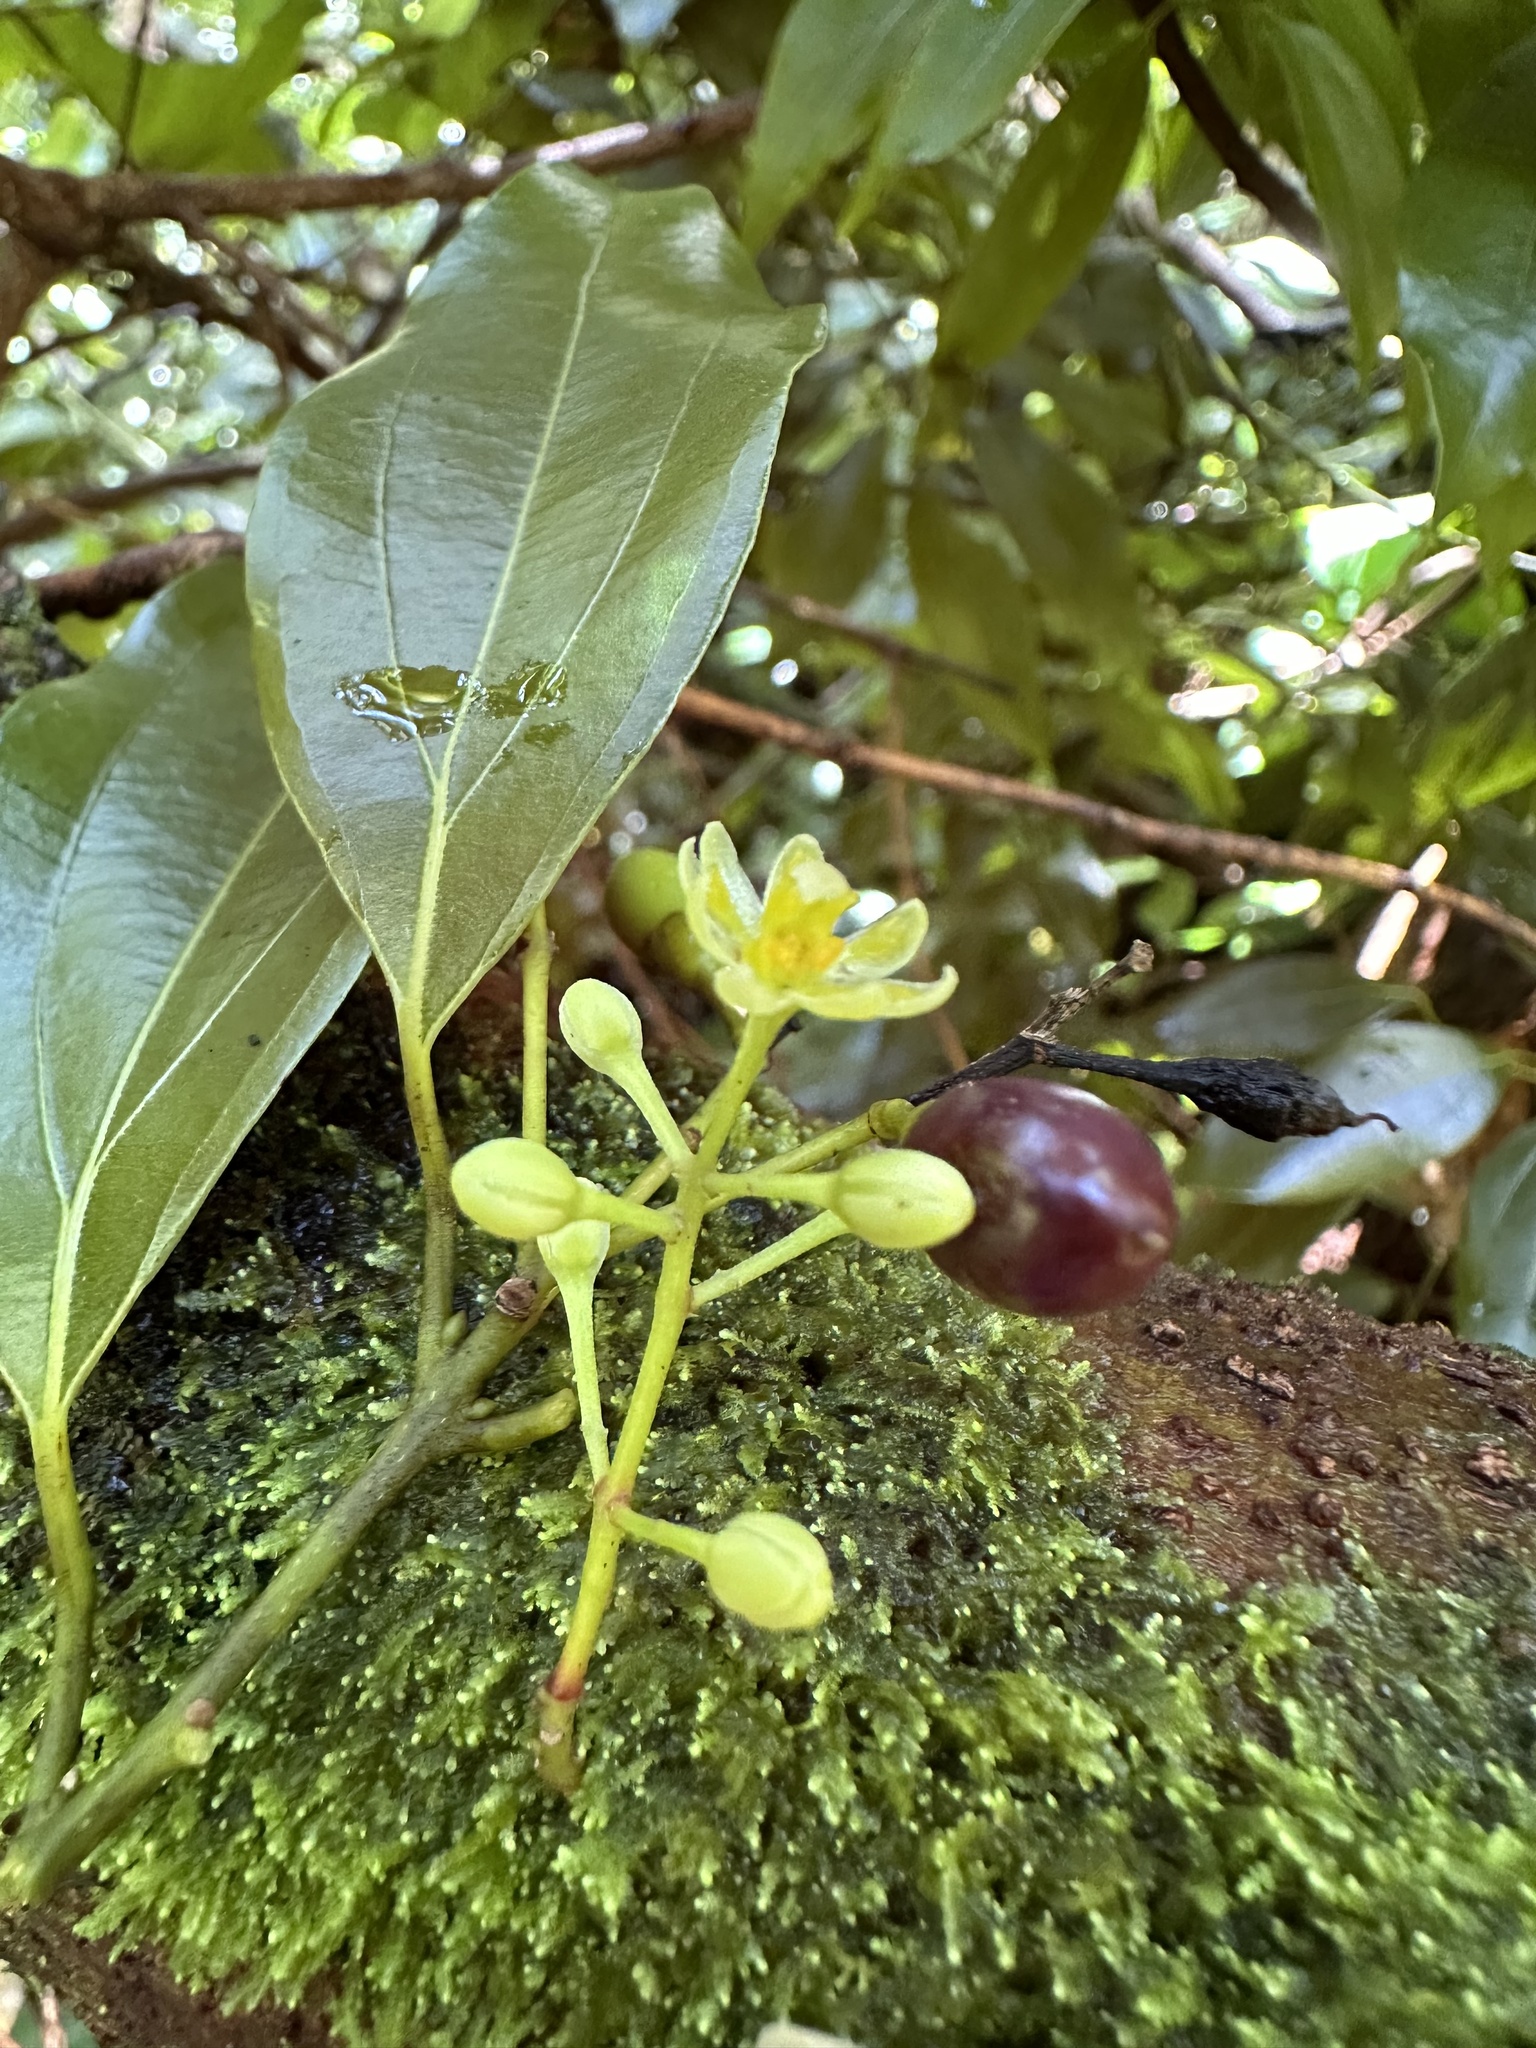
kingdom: Plantae
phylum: Tracheophyta
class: Magnoliopsida
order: Laurales
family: Lauraceae
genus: Cinnamomum
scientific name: Cinnamomum burmanni
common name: Padang cassia
